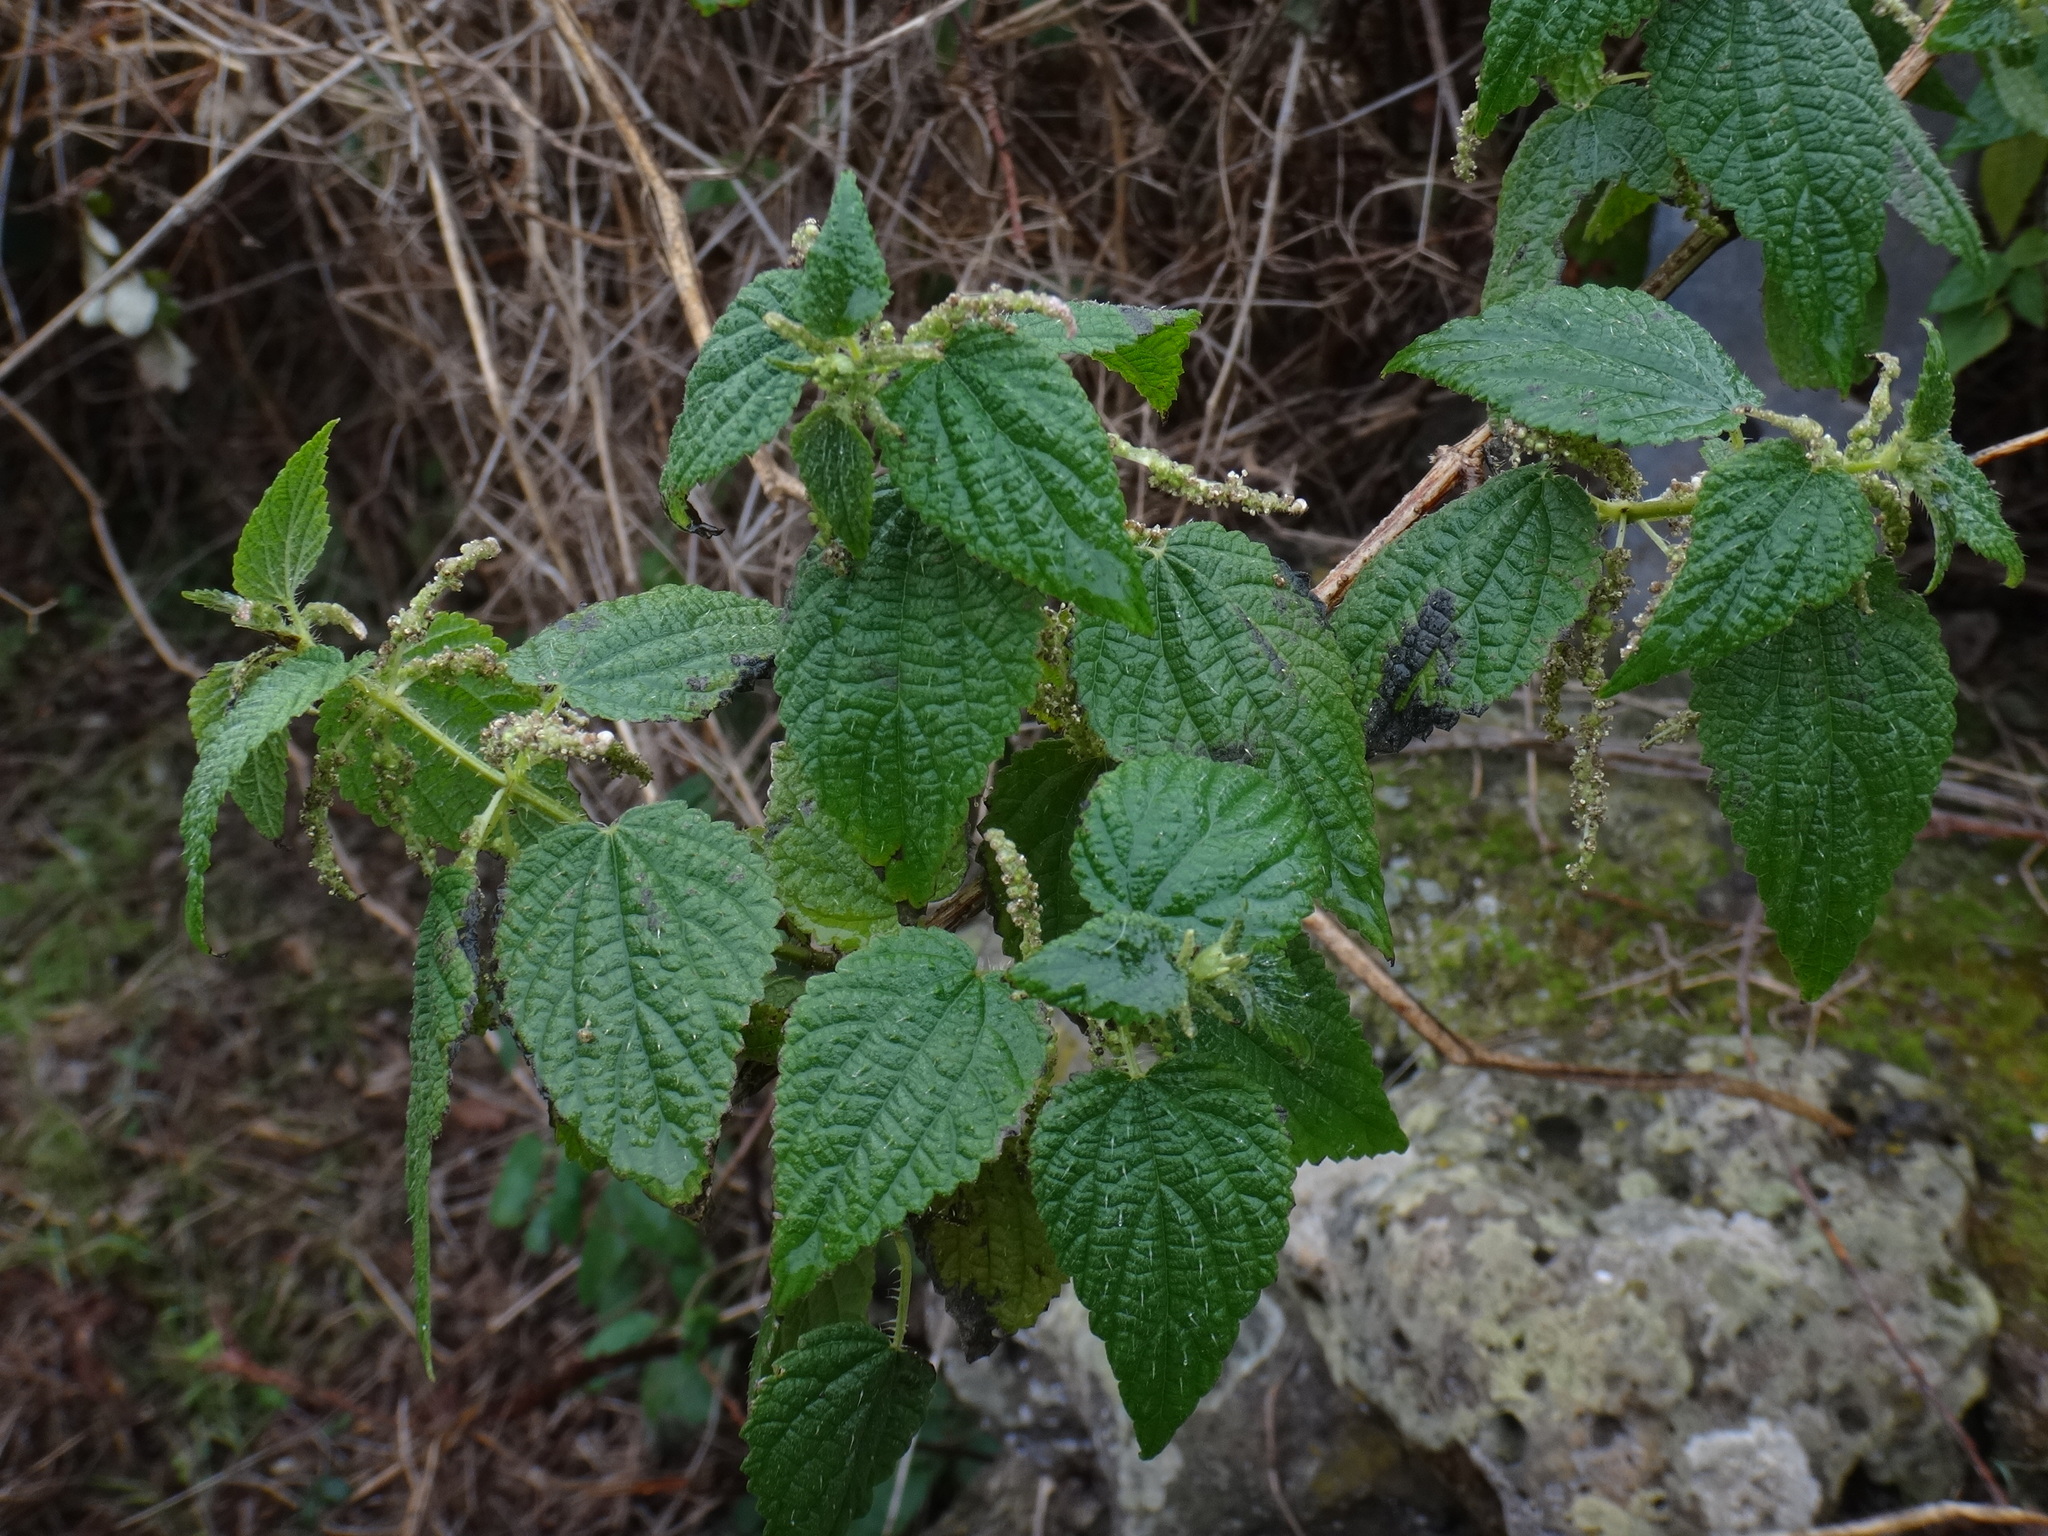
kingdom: Plantae
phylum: Tracheophyta
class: Magnoliopsida
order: Rosales
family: Urticaceae
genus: Urtica
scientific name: Urtica morifolia
